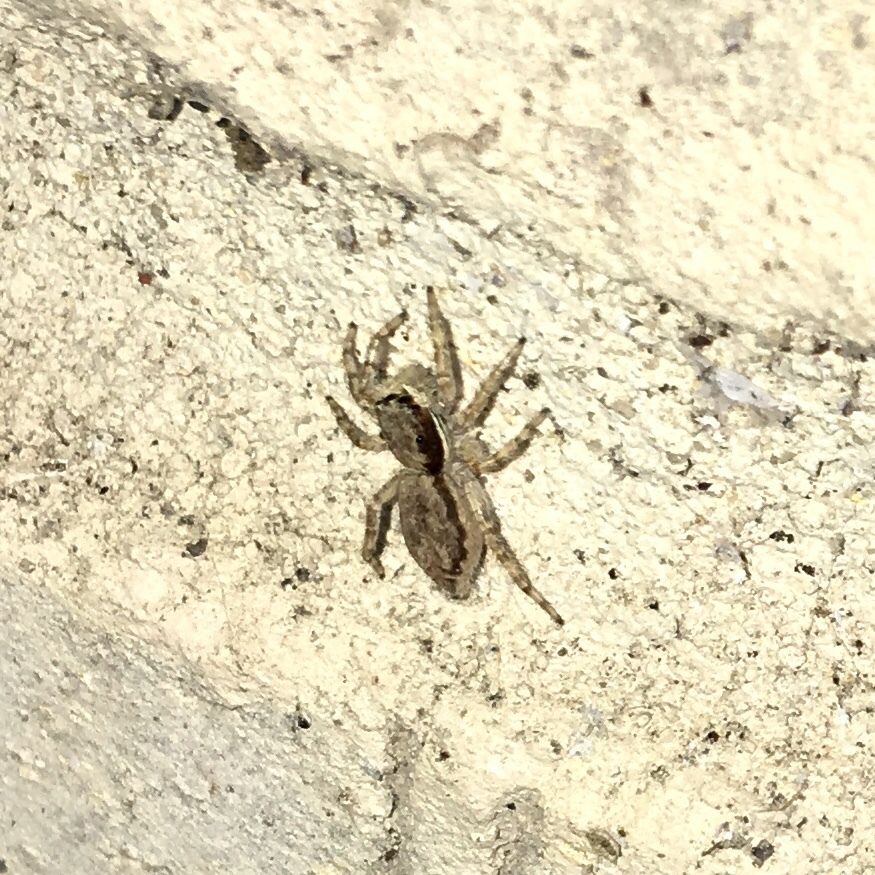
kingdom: Animalia
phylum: Arthropoda
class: Arachnida
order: Araneae
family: Salticidae
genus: Menemerus
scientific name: Menemerus bivittatus
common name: Gray wall jumper
